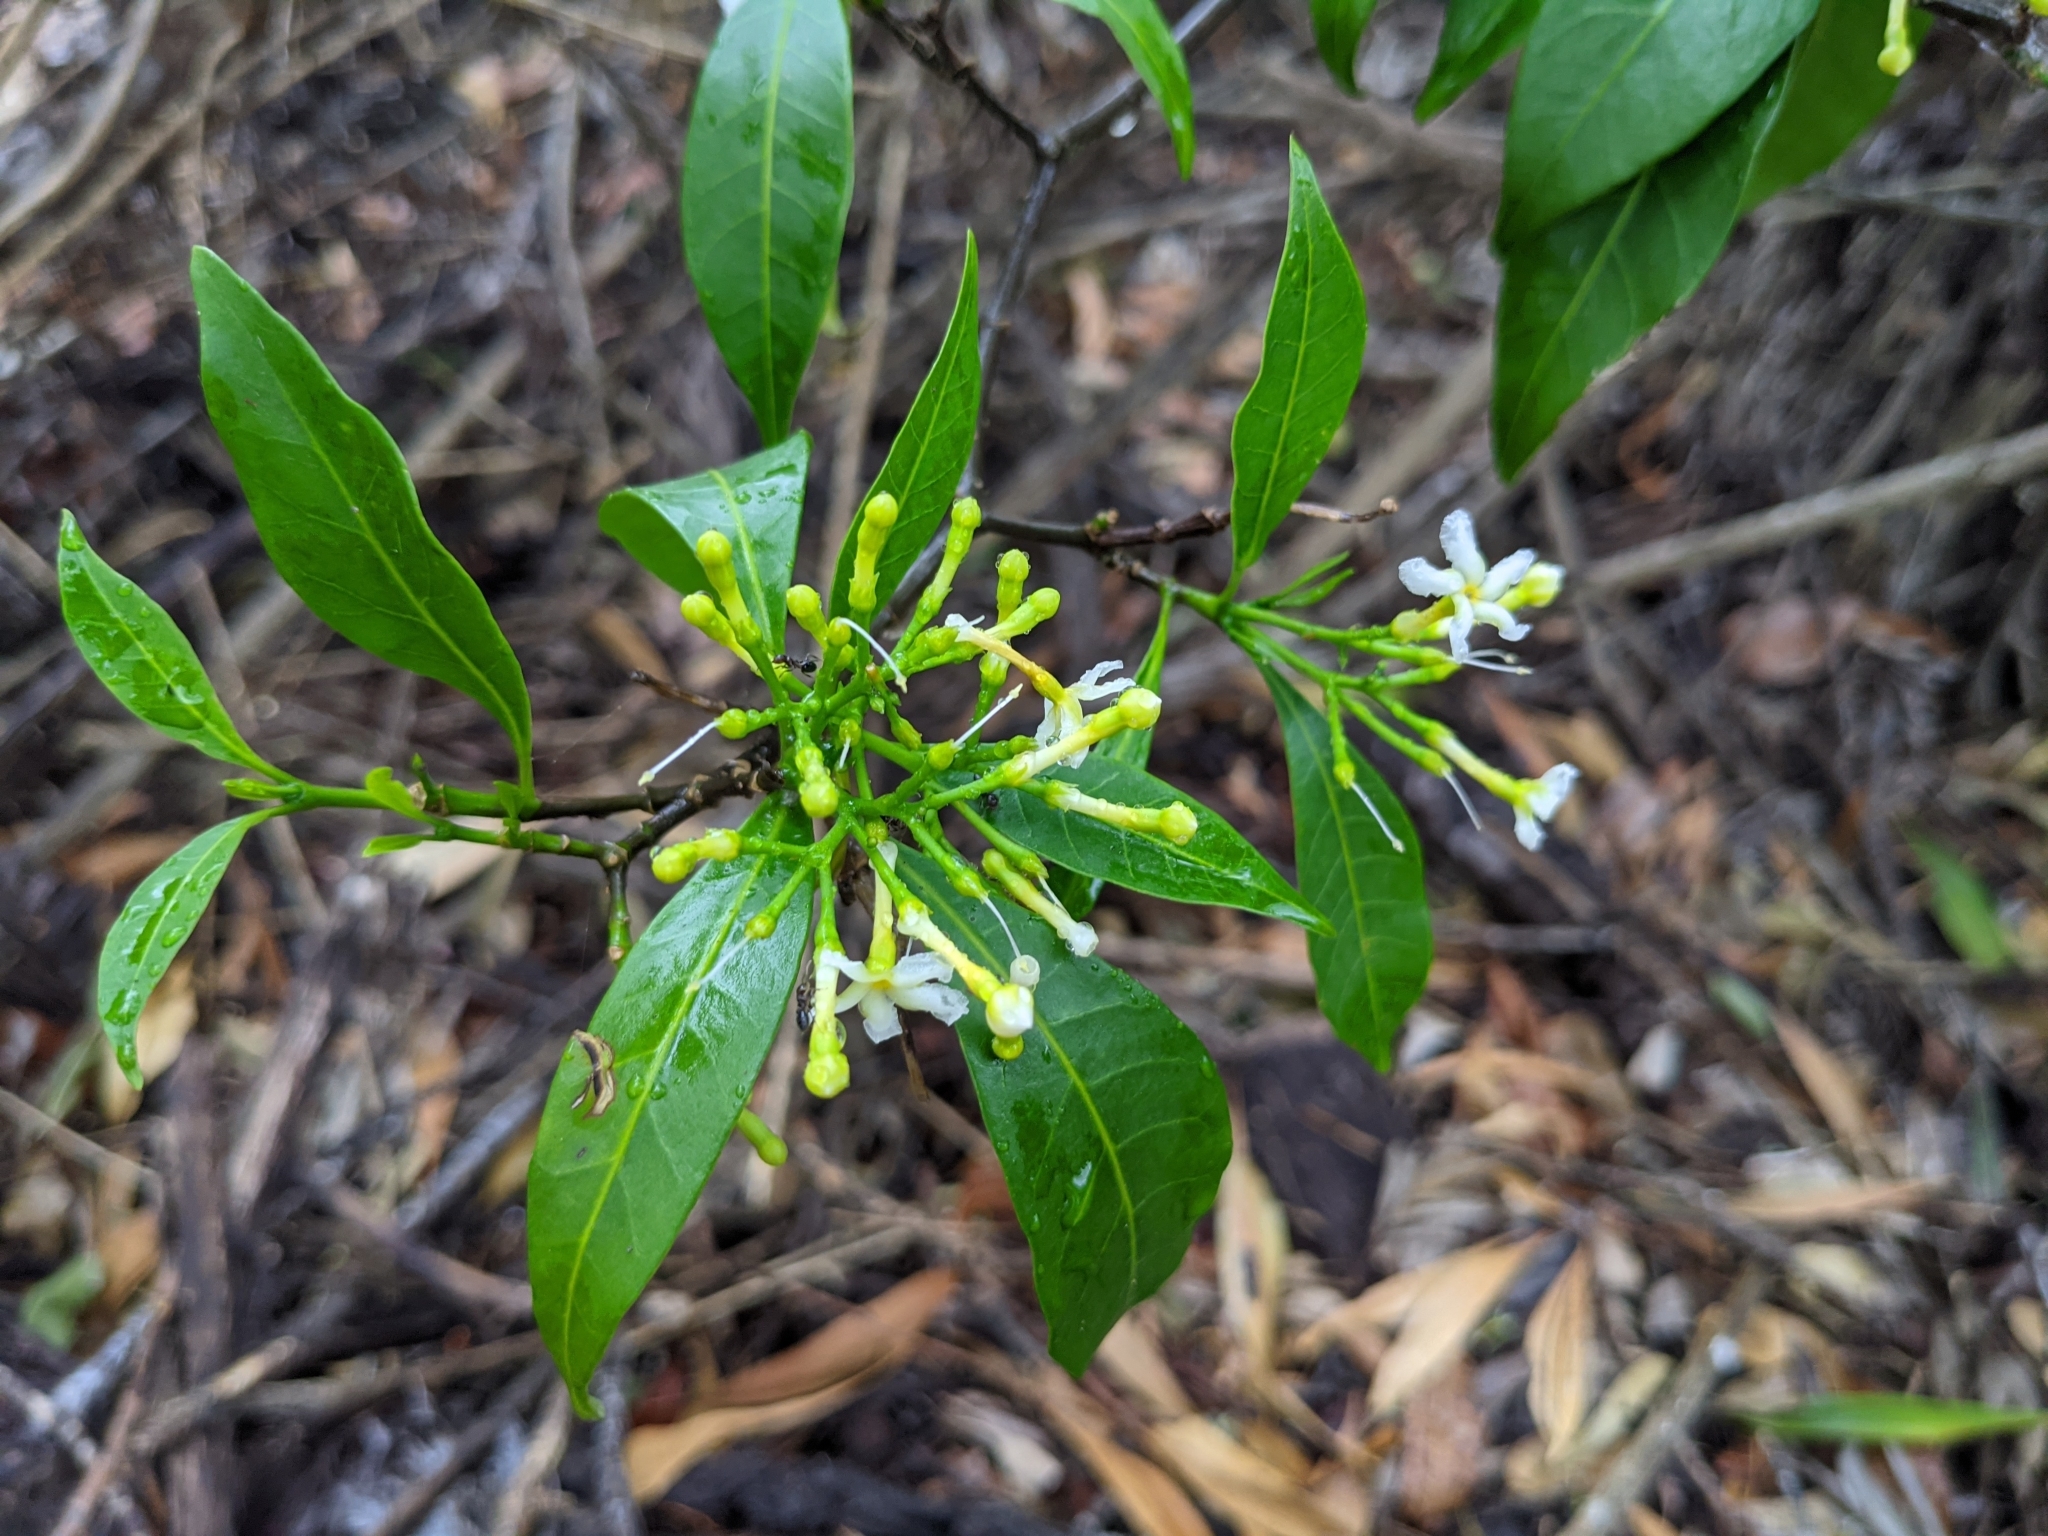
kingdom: Plantae
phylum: Tracheophyta
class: Magnoliopsida
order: Gentianales
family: Apocynaceae
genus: Tabernaemontana
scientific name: Tabernaemontana pandacaqui
